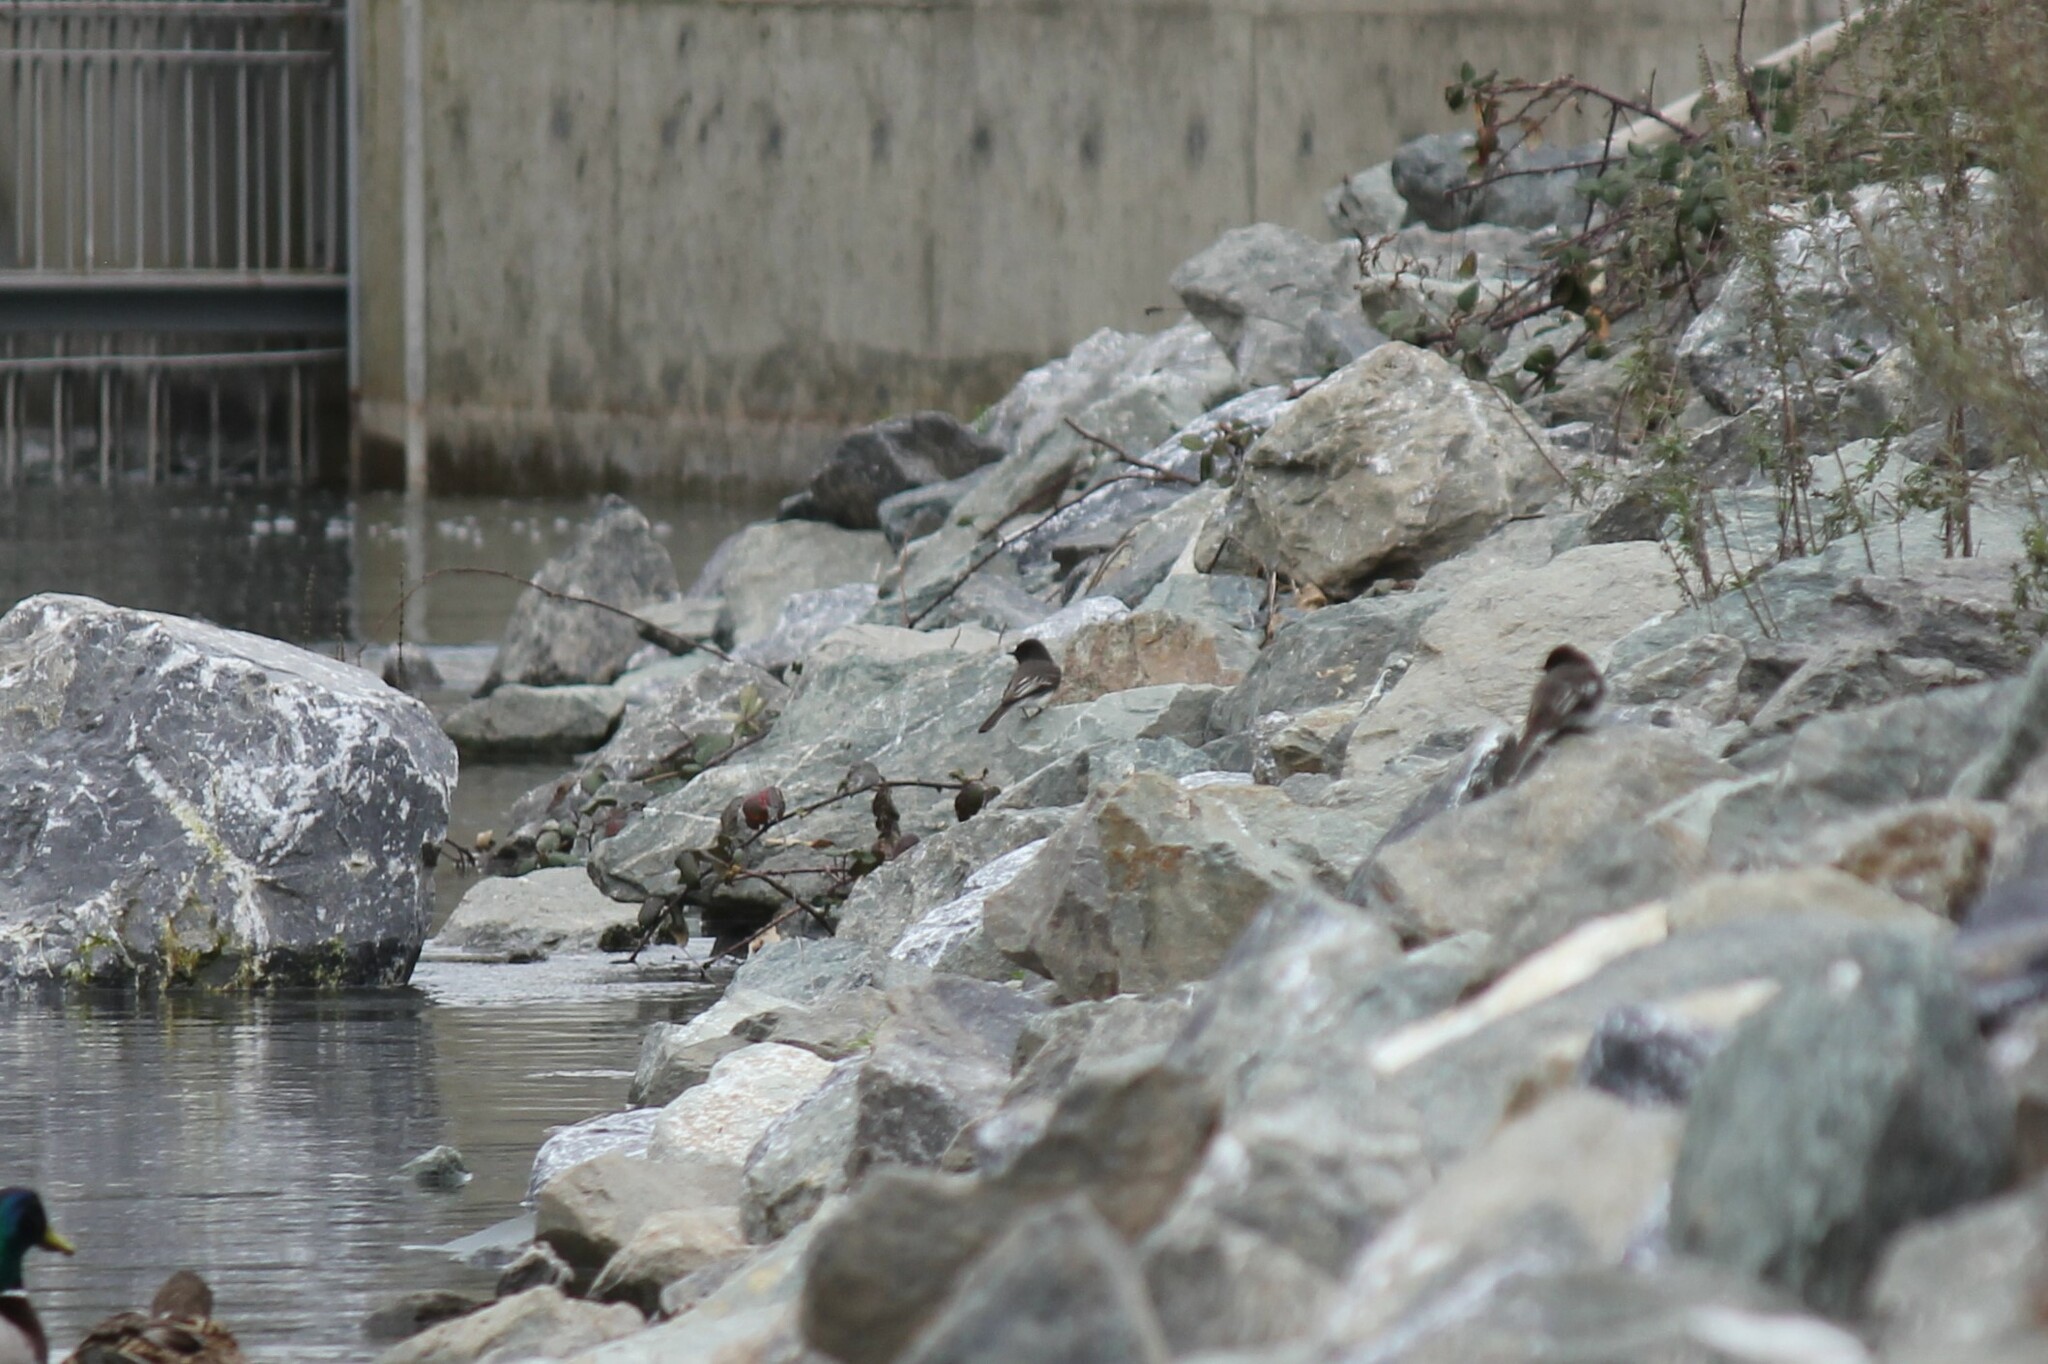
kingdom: Animalia
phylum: Chordata
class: Aves
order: Passeriformes
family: Tyrannidae
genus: Sayornis
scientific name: Sayornis nigricans
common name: Black phoebe
